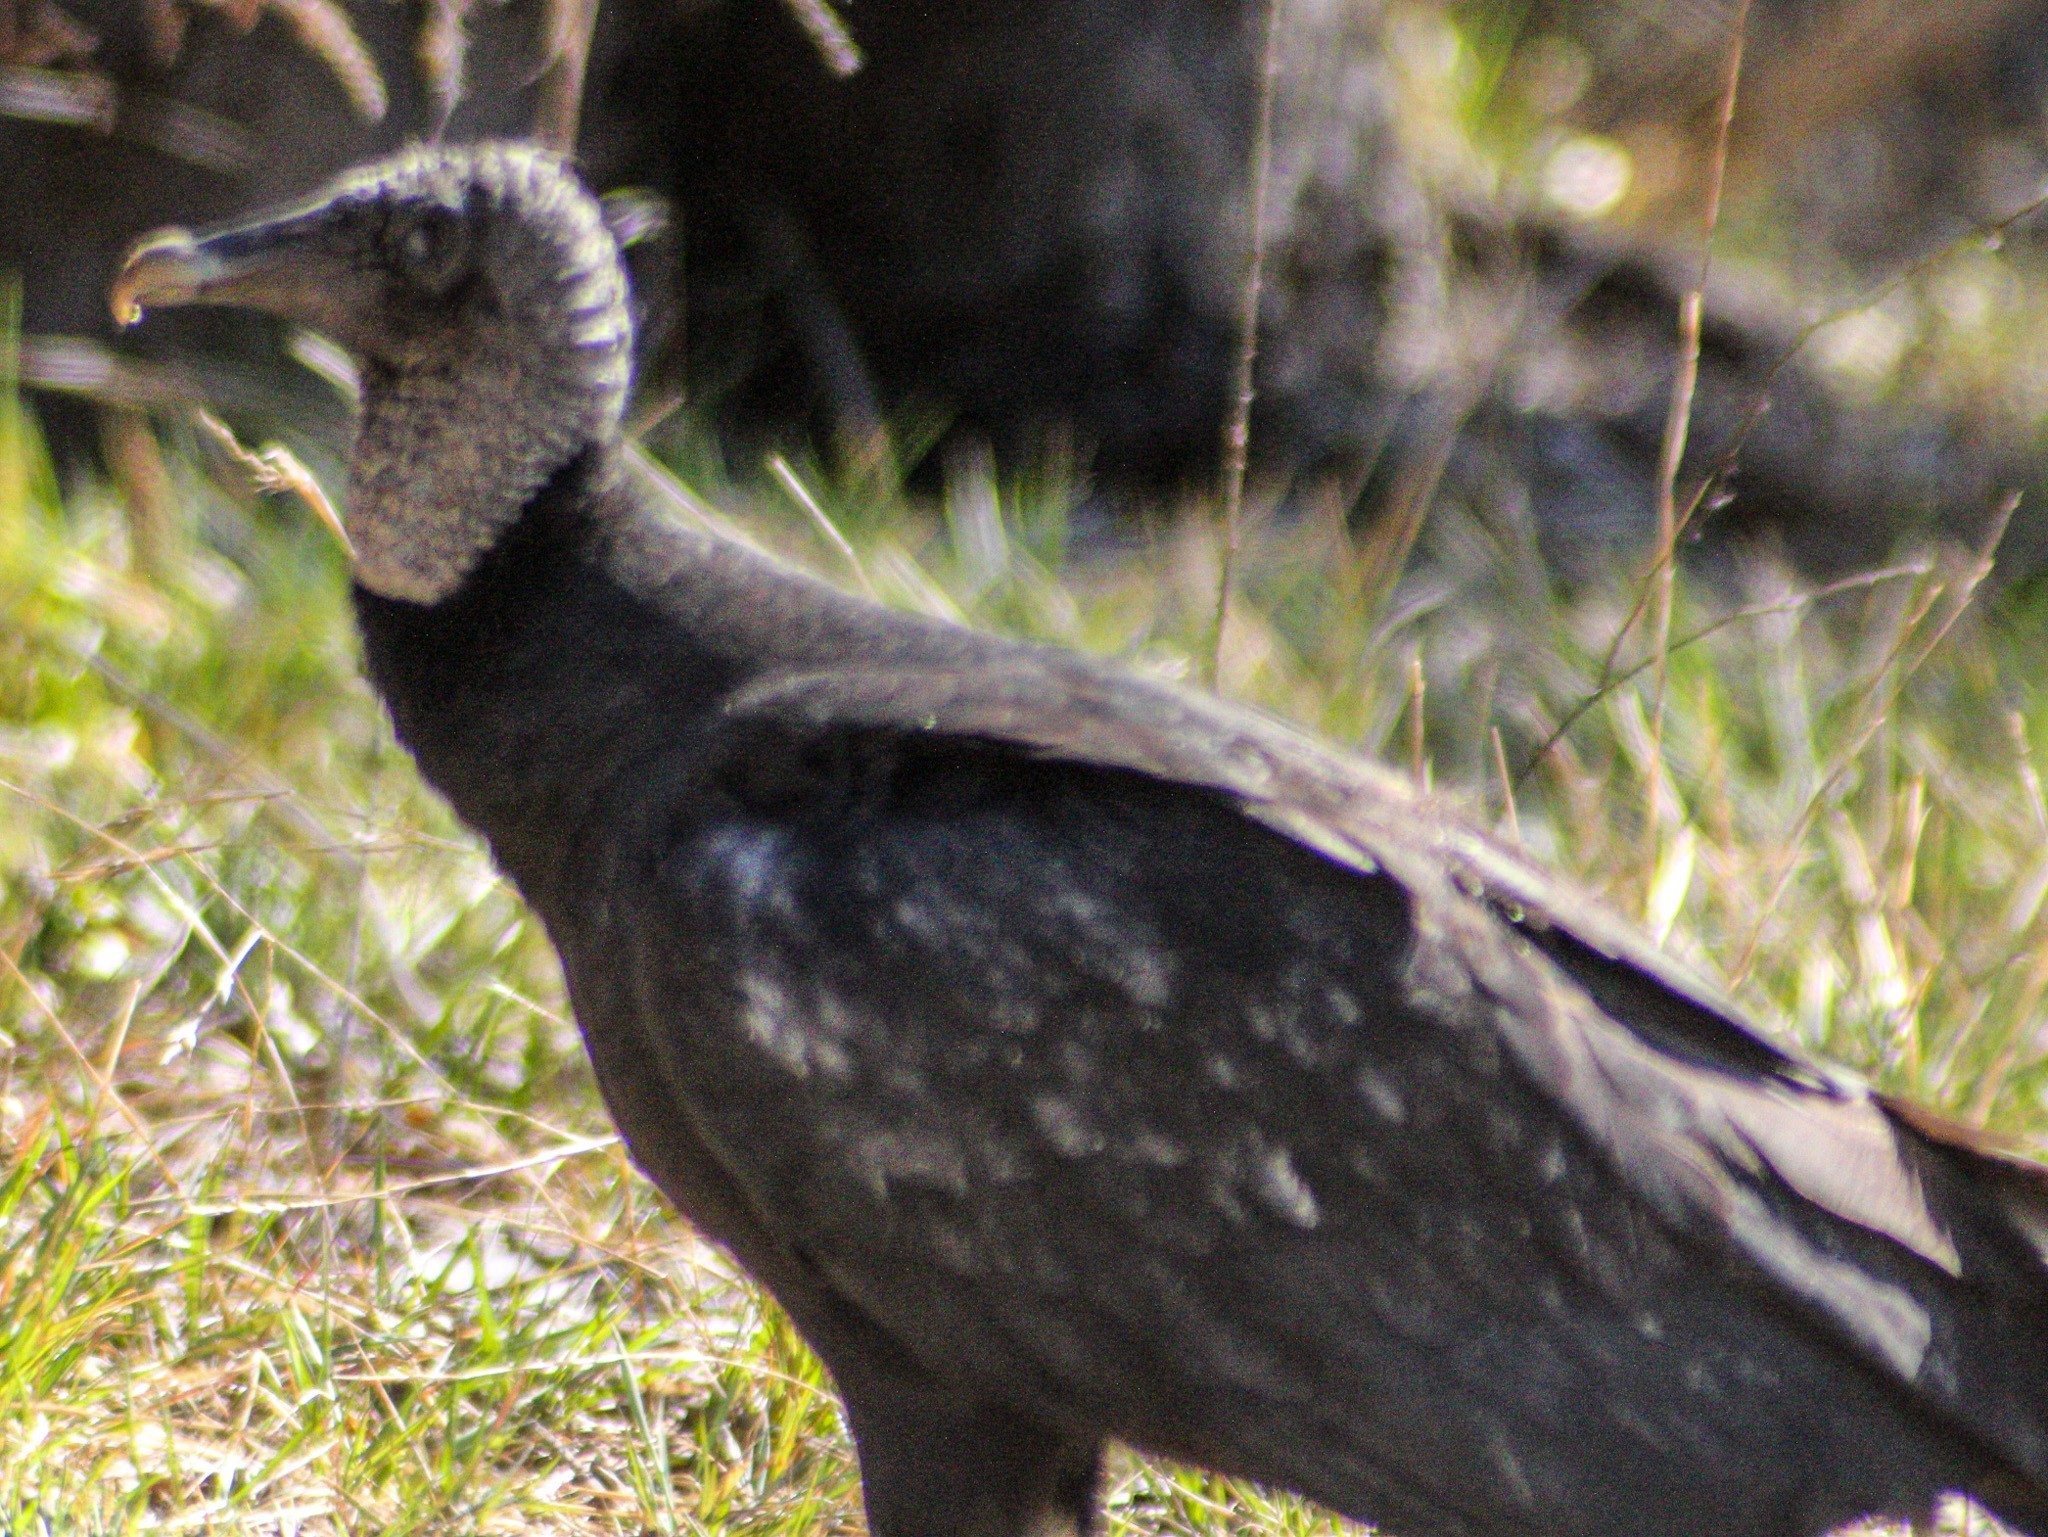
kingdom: Animalia
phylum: Chordata
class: Aves
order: Accipitriformes
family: Cathartidae
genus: Coragyps
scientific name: Coragyps atratus
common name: Black vulture
